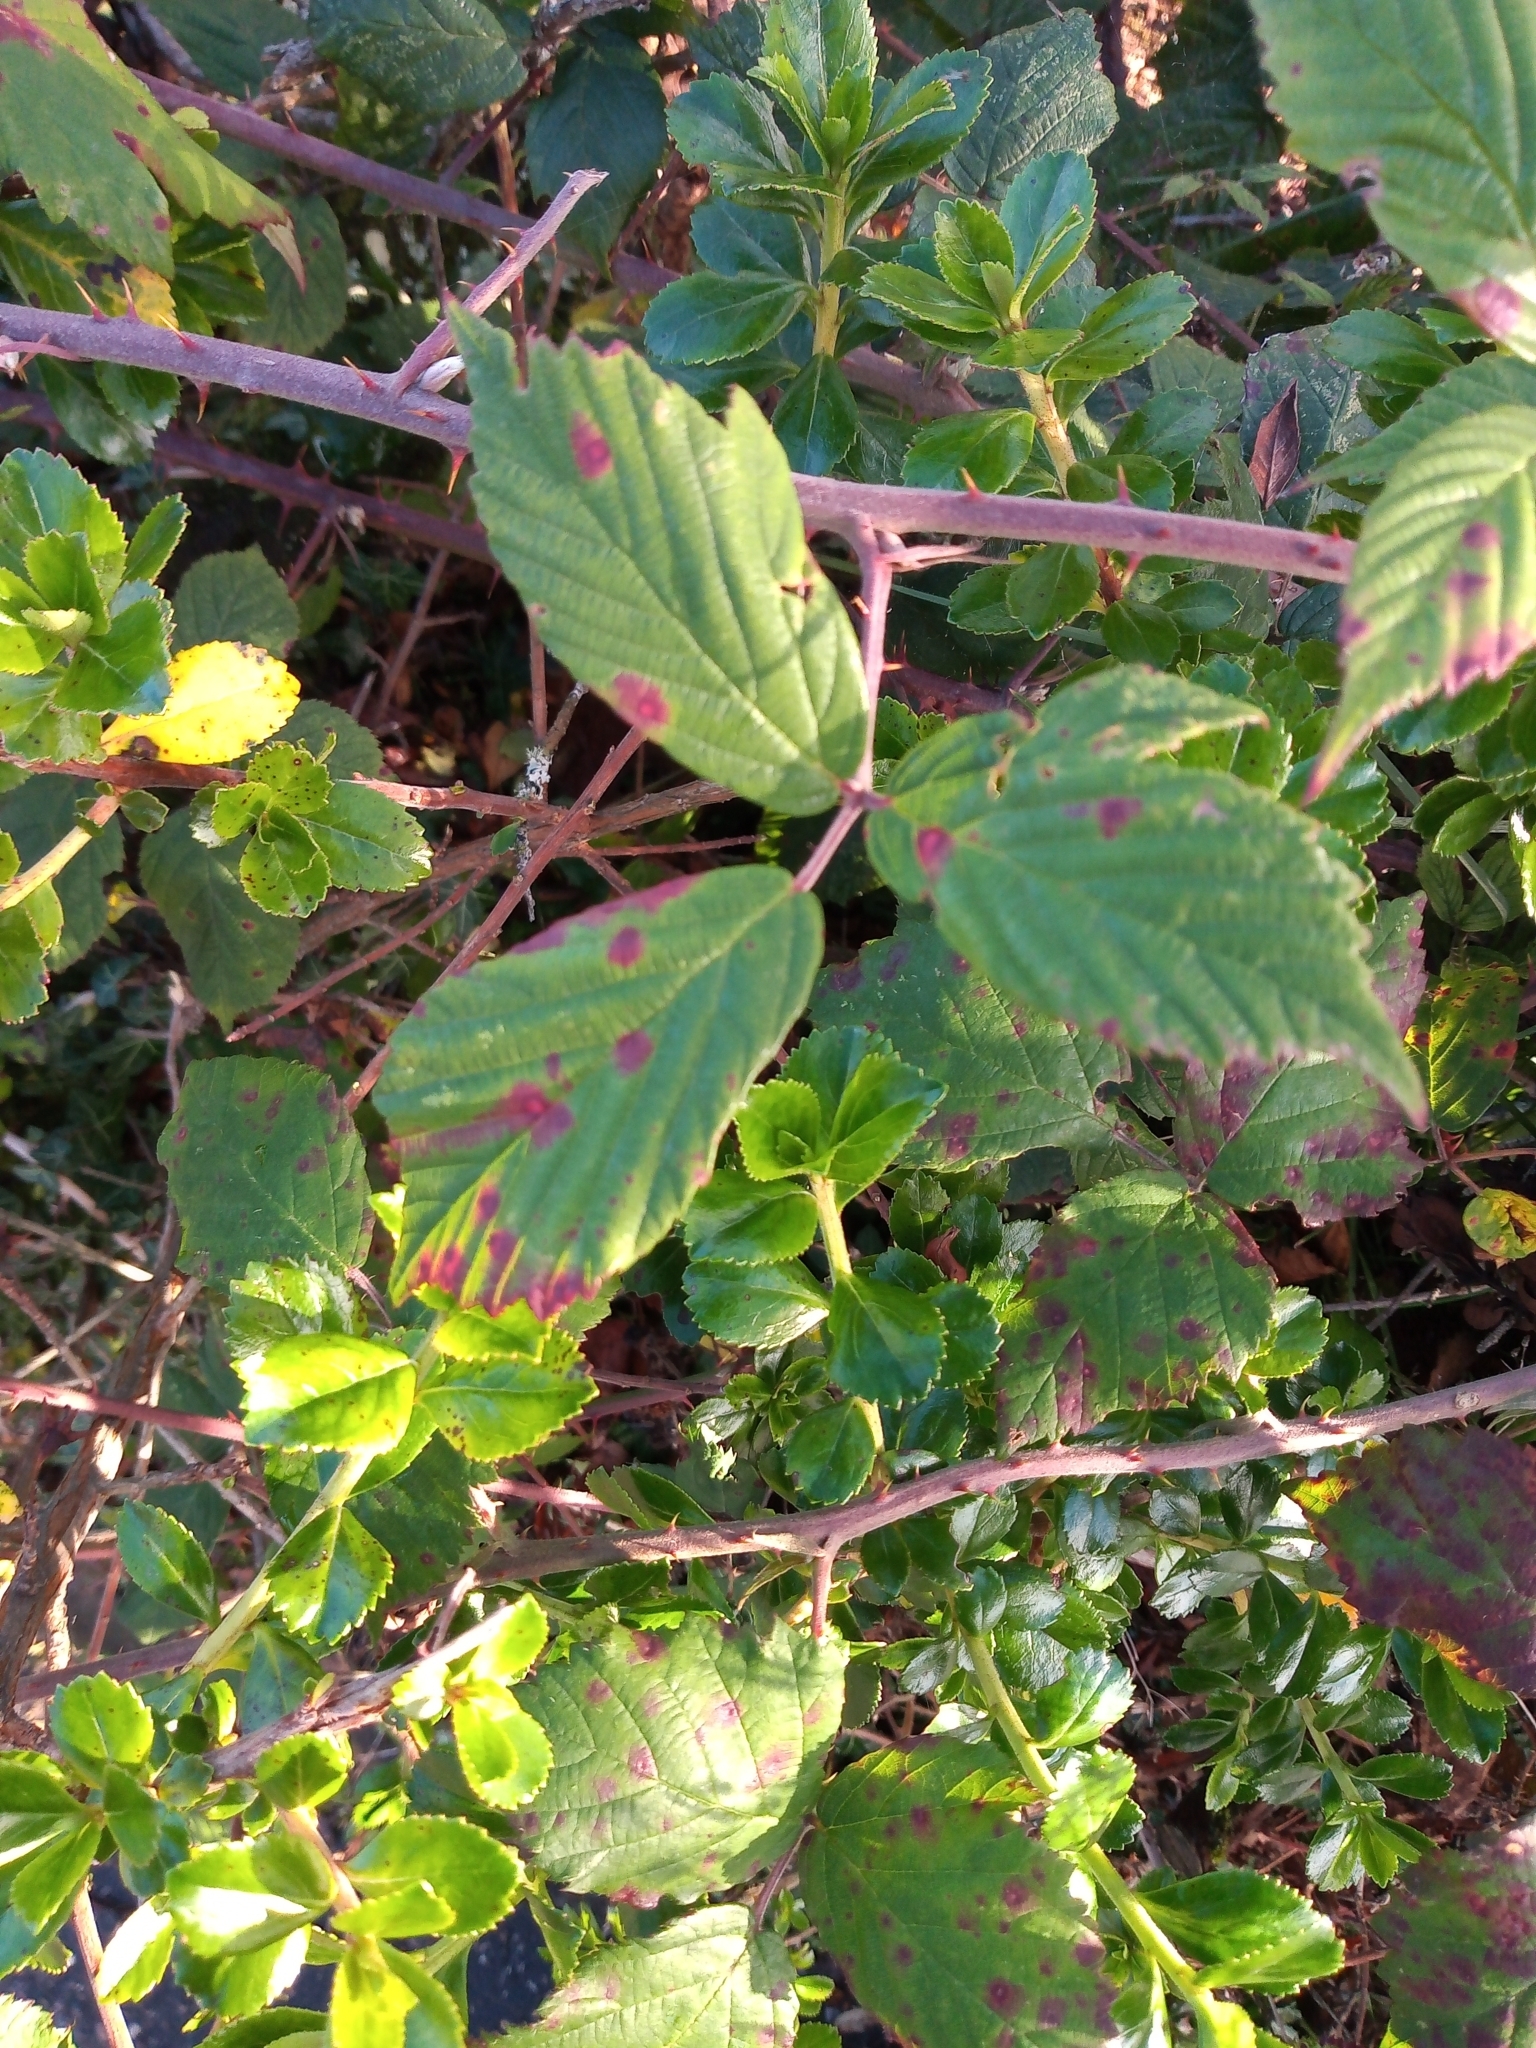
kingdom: Fungi
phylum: Basidiomycota
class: Pucciniomycetes
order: Pucciniales
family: Phragmidiaceae
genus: Phragmidium
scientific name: Phragmidium violaceum
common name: Violet bramble rust
